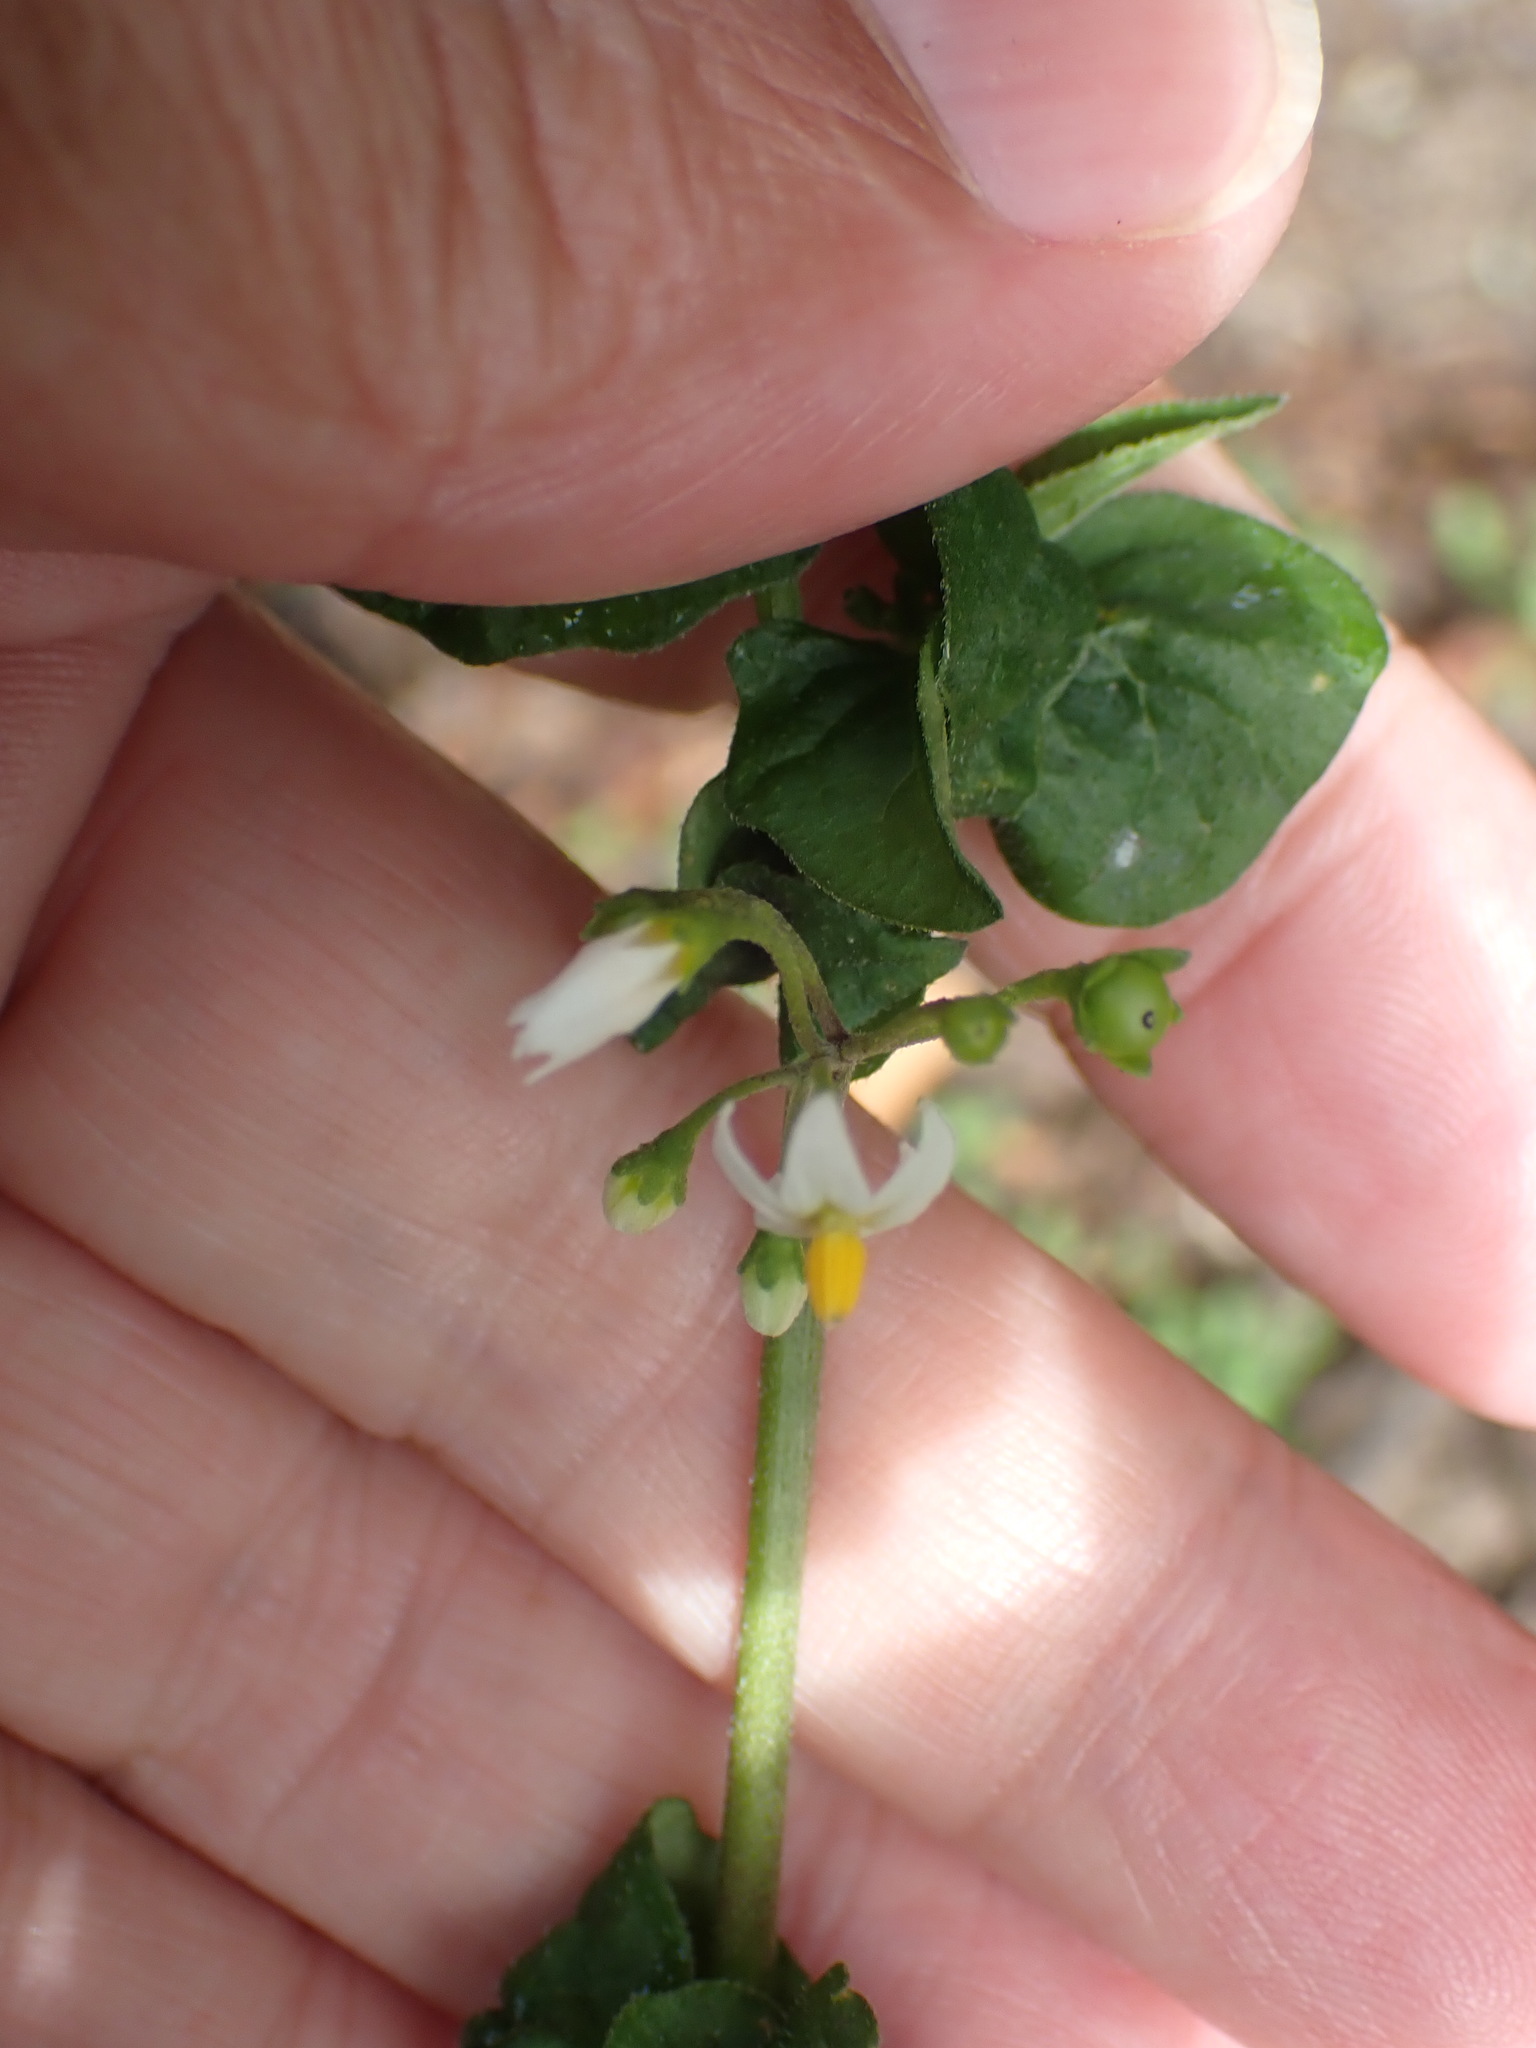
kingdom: Plantae
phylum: Tracheophyta
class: Magnoliopsida
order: Solanales
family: Solanaceae
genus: Solanum
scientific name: Solanum nigrum
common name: Black nightshade
